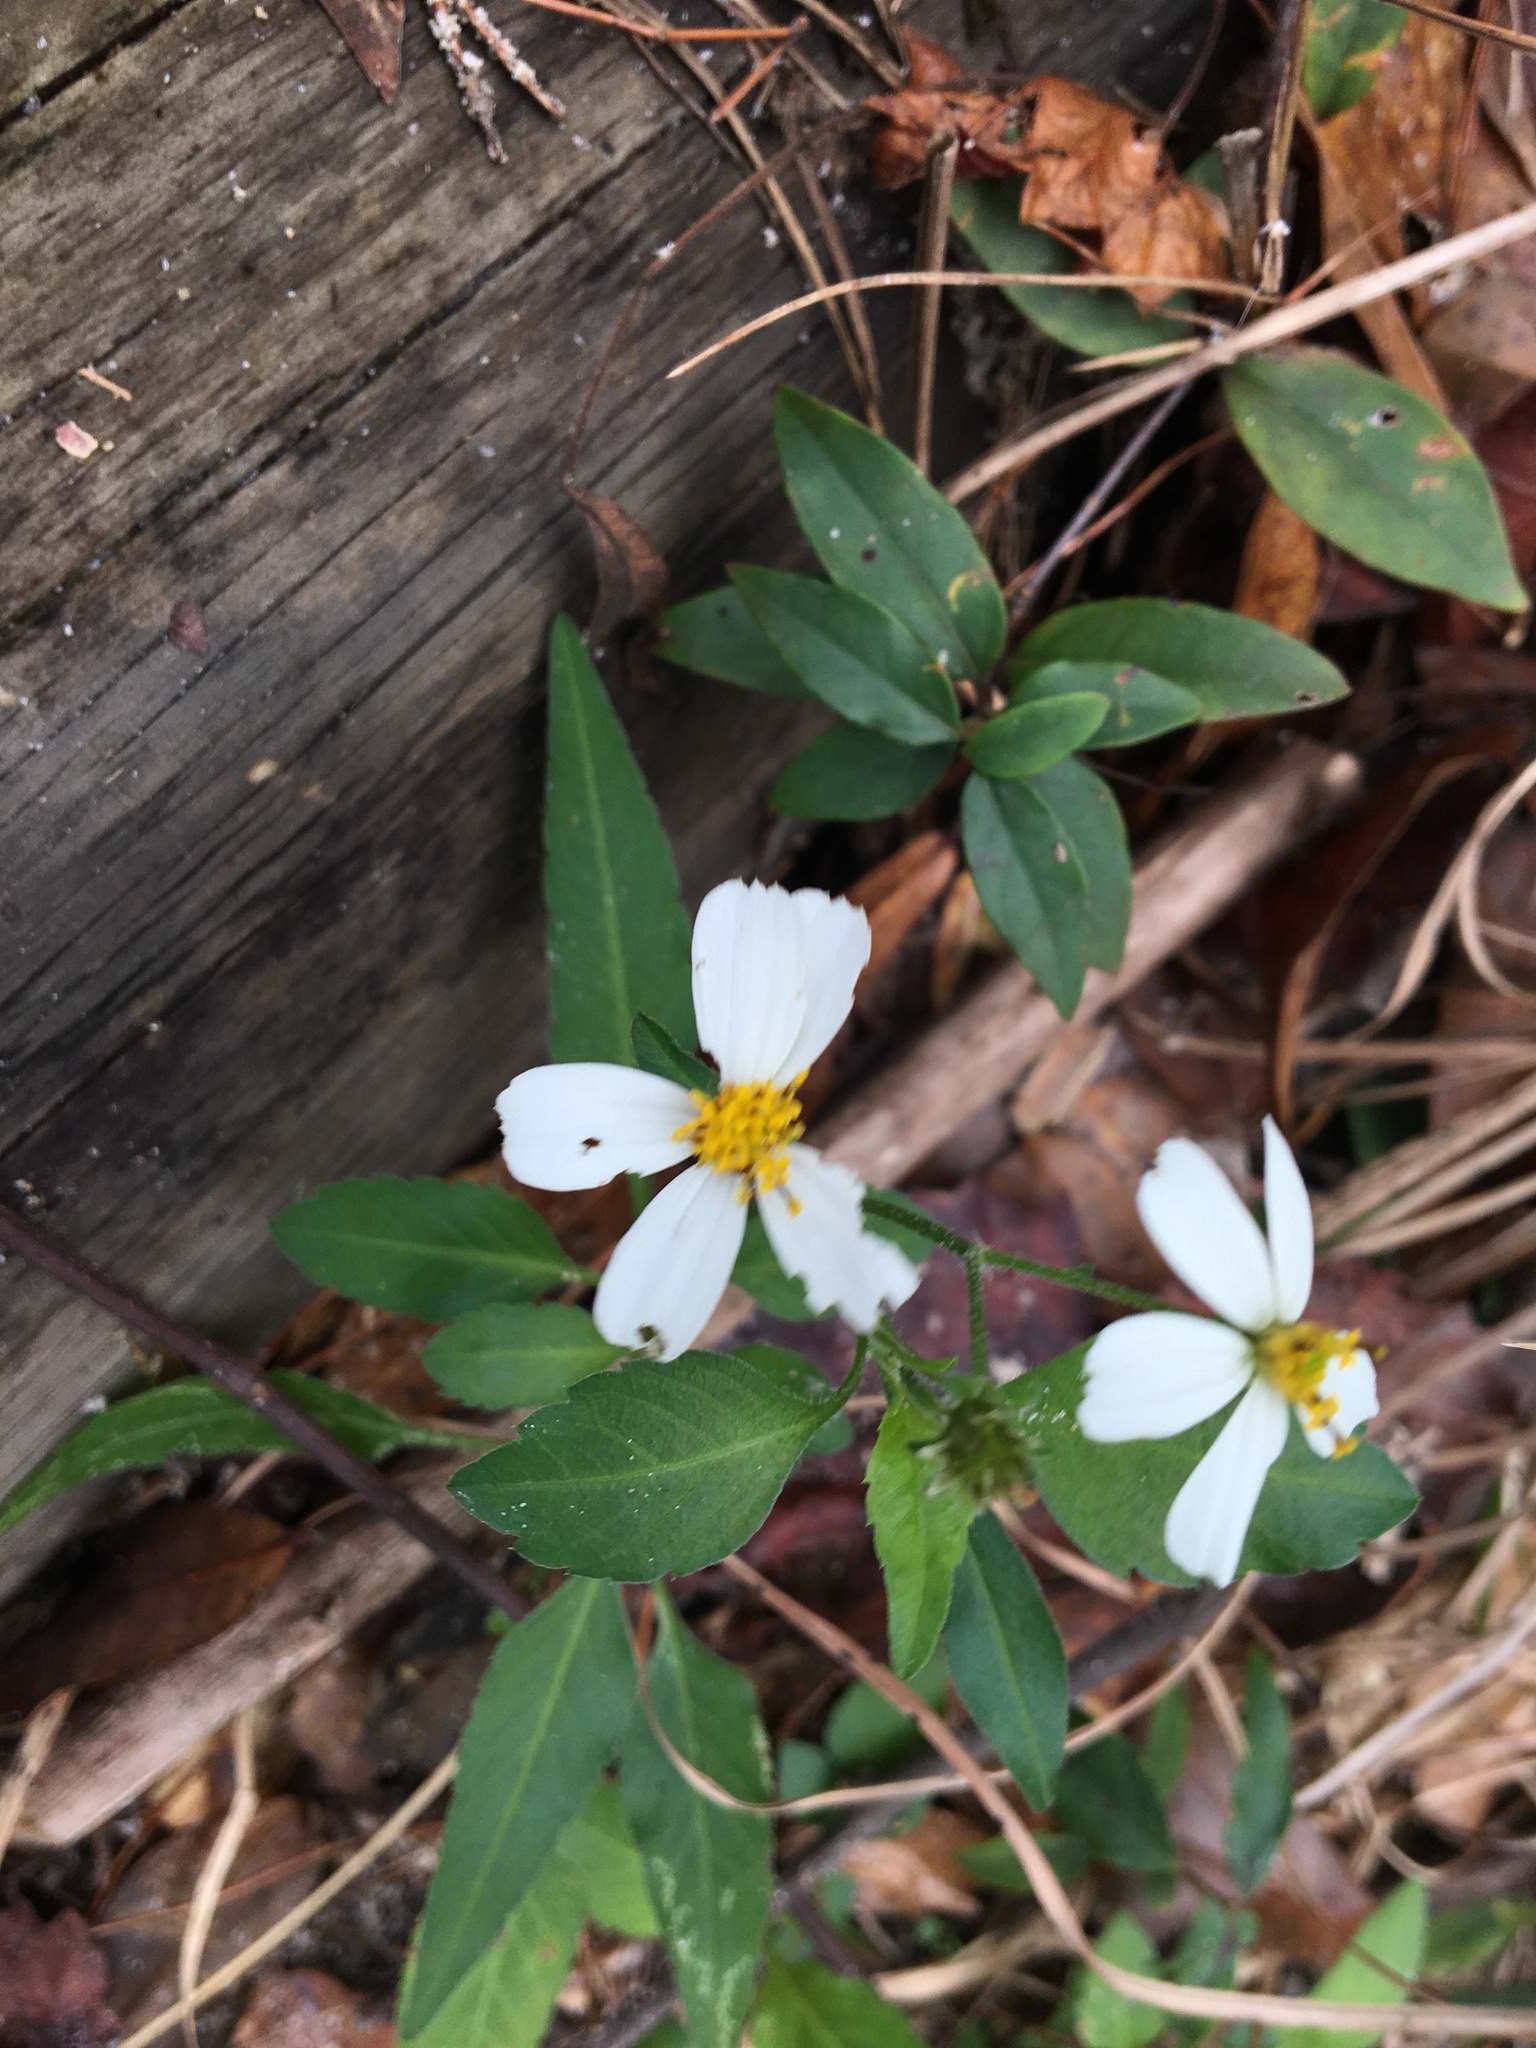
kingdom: Plantae
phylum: Tracheophyta
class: Magnoliopsida
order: Asterales
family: Asteraceae
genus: Bidens
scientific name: Bidens alba
